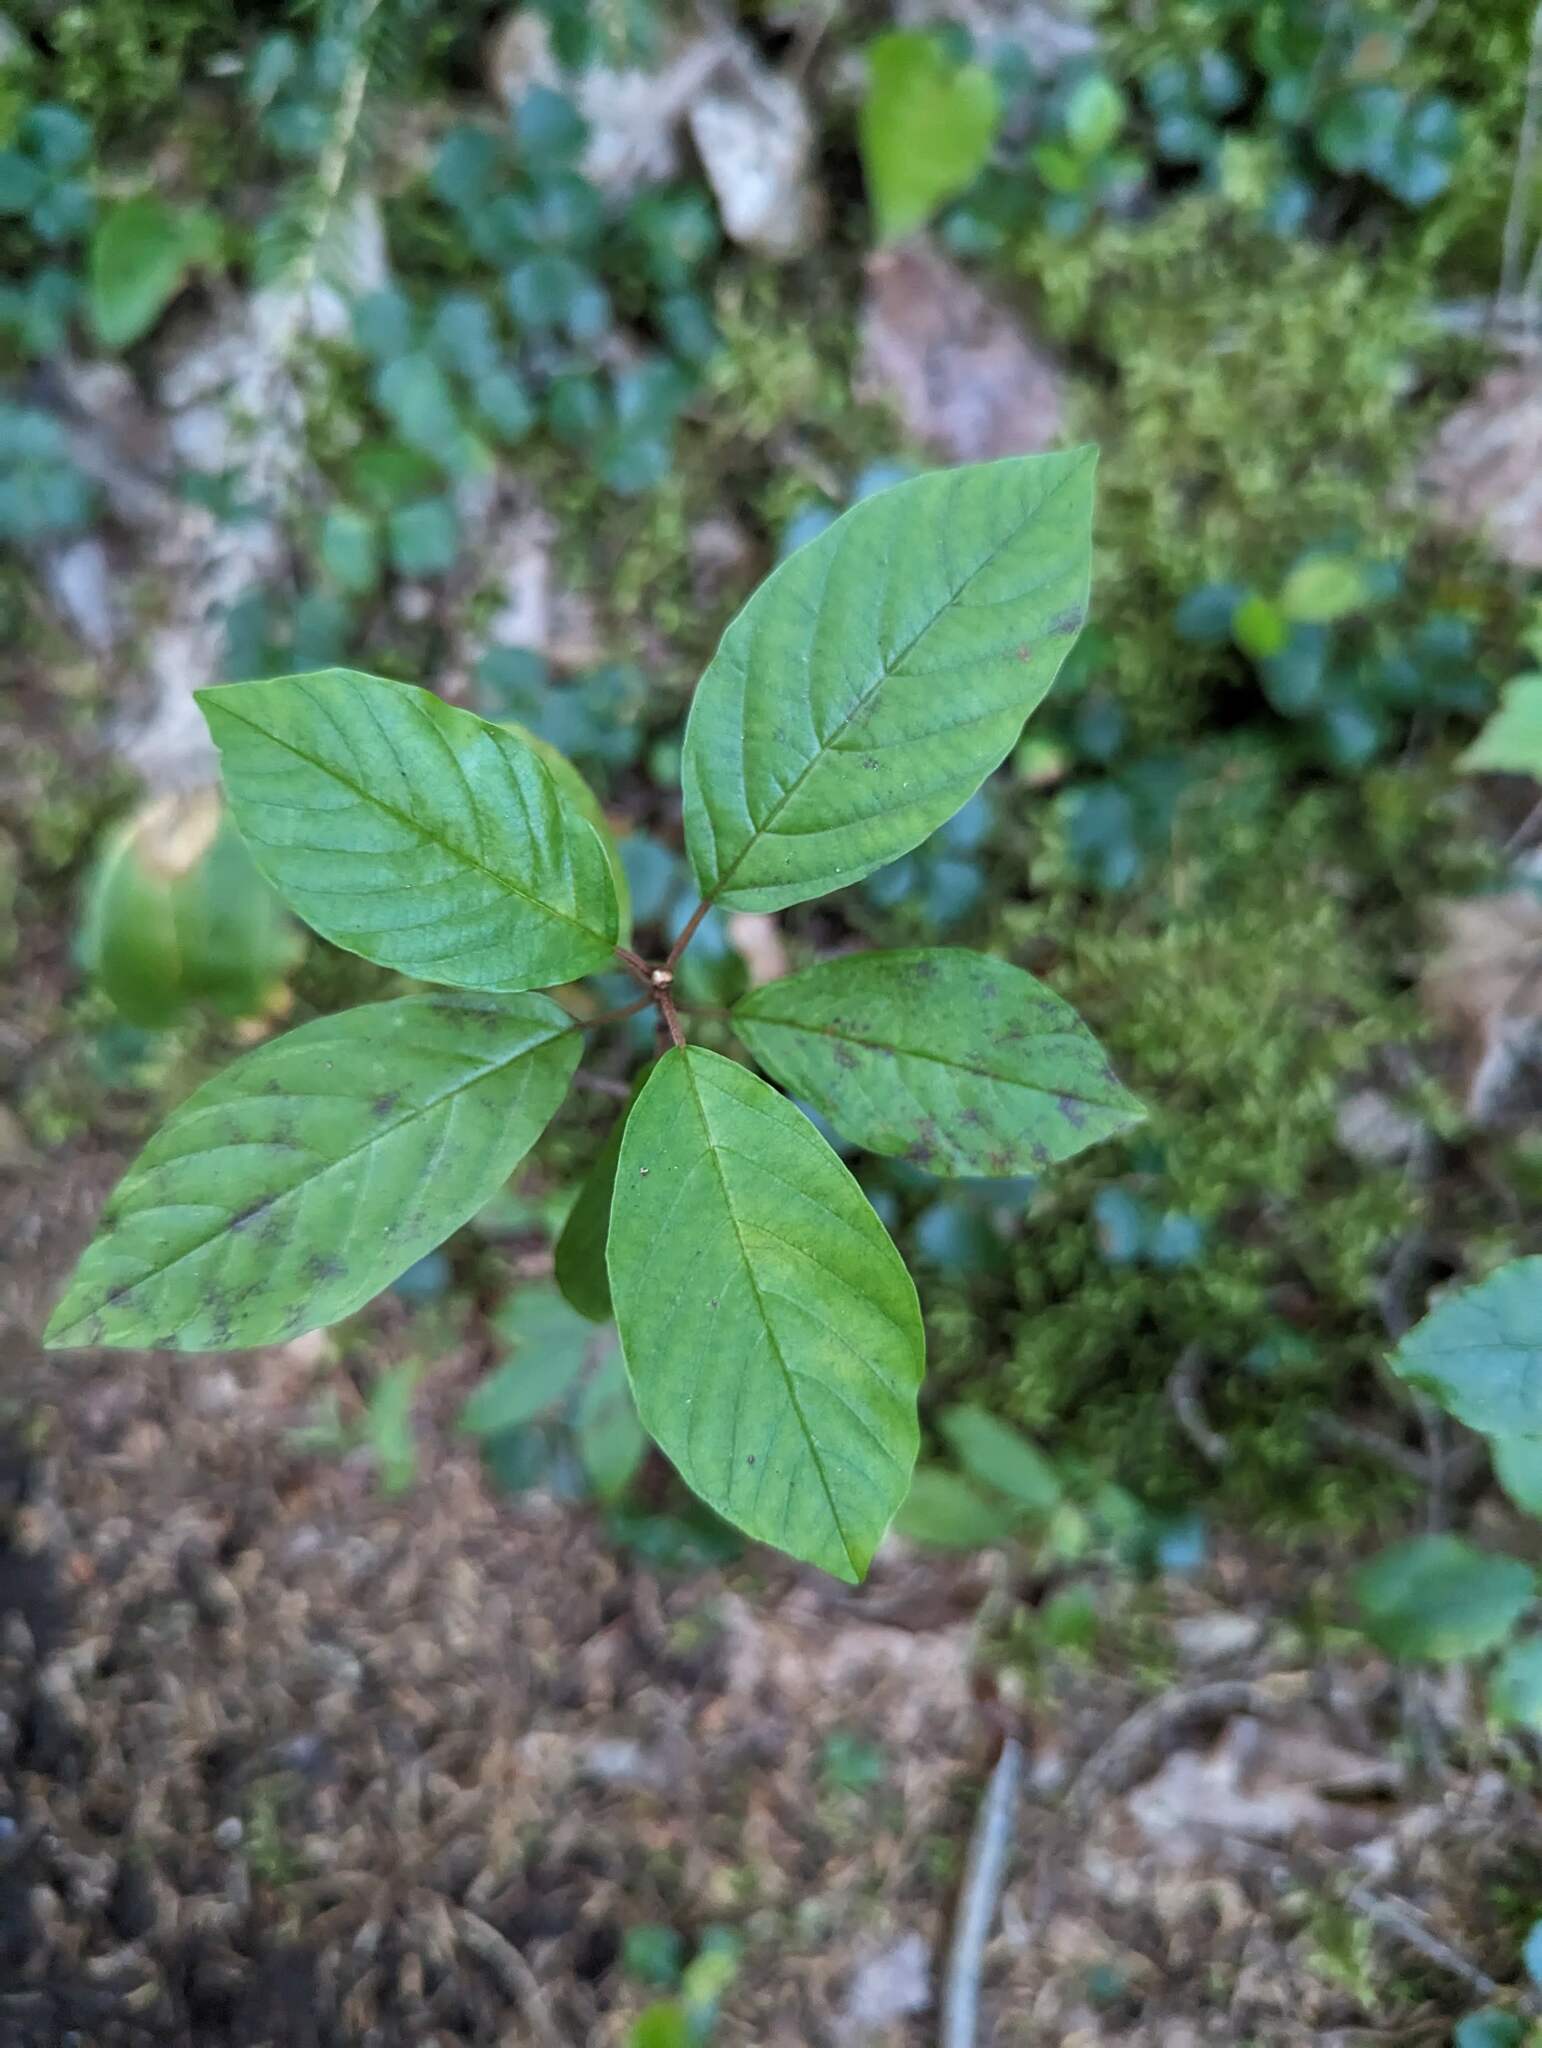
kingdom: Plantae
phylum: Tracheophyta
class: Magnoliopsida
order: Rosales
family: Rhamnaceae
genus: Frangula
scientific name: Frangula alnus
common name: Alder buckthorn
